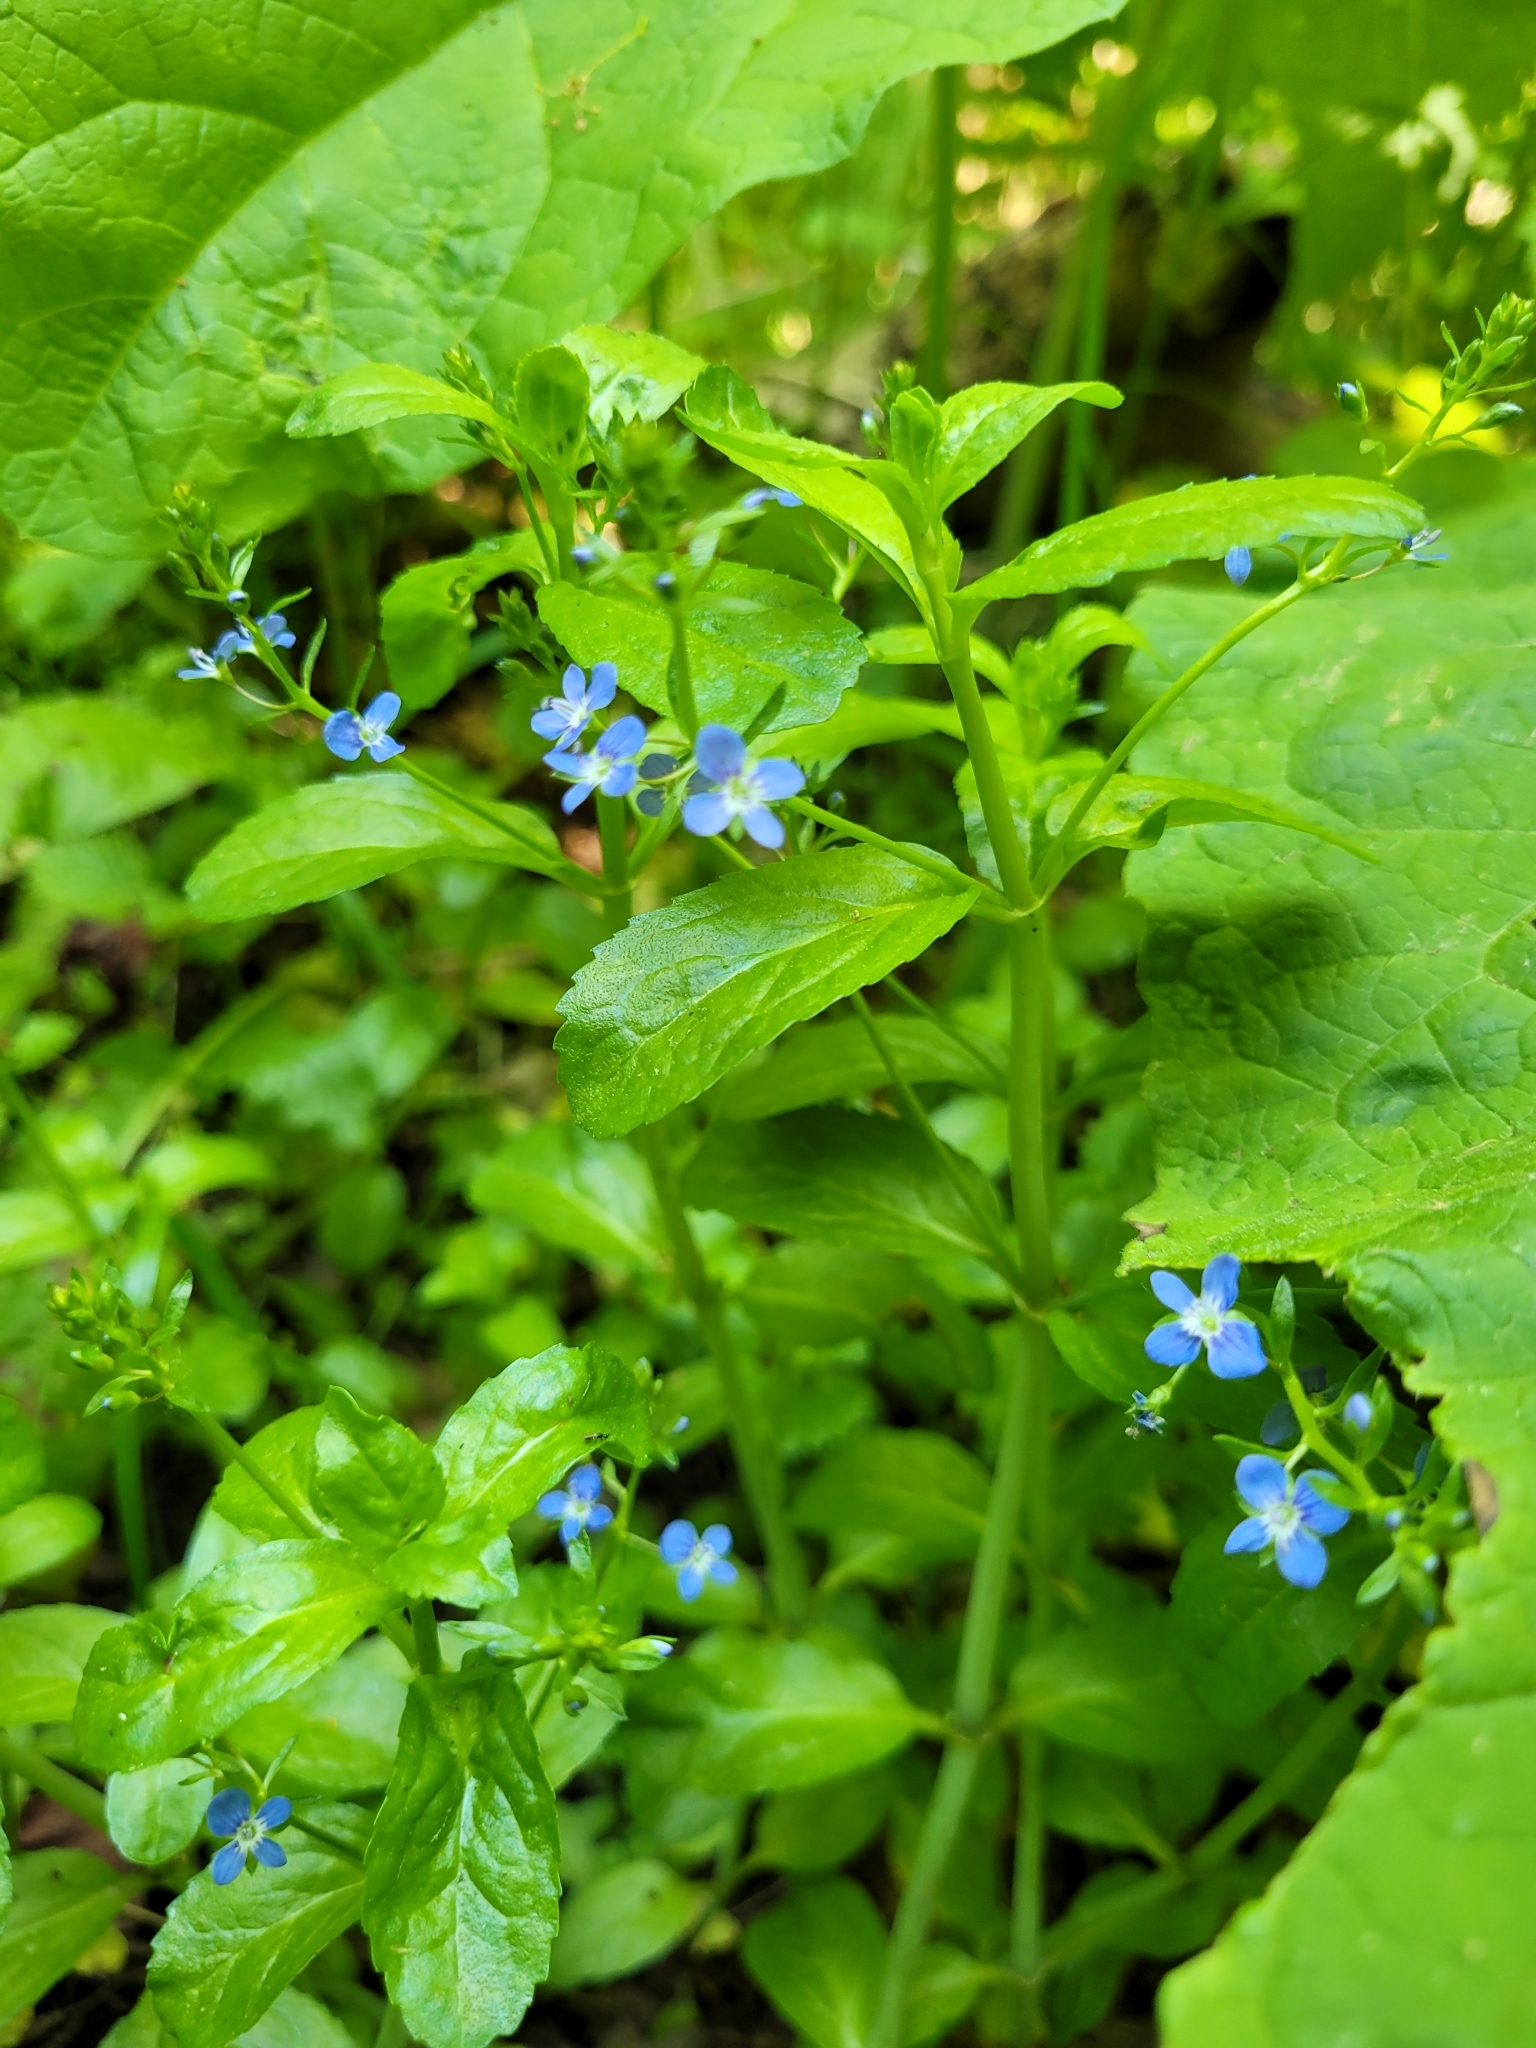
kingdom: Plantae
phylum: Tracheophyta
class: Magnoliopsida
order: Lamiales
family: Plantaginaceae
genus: Veronica
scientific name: Veronica beccabunga
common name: Brooklime
